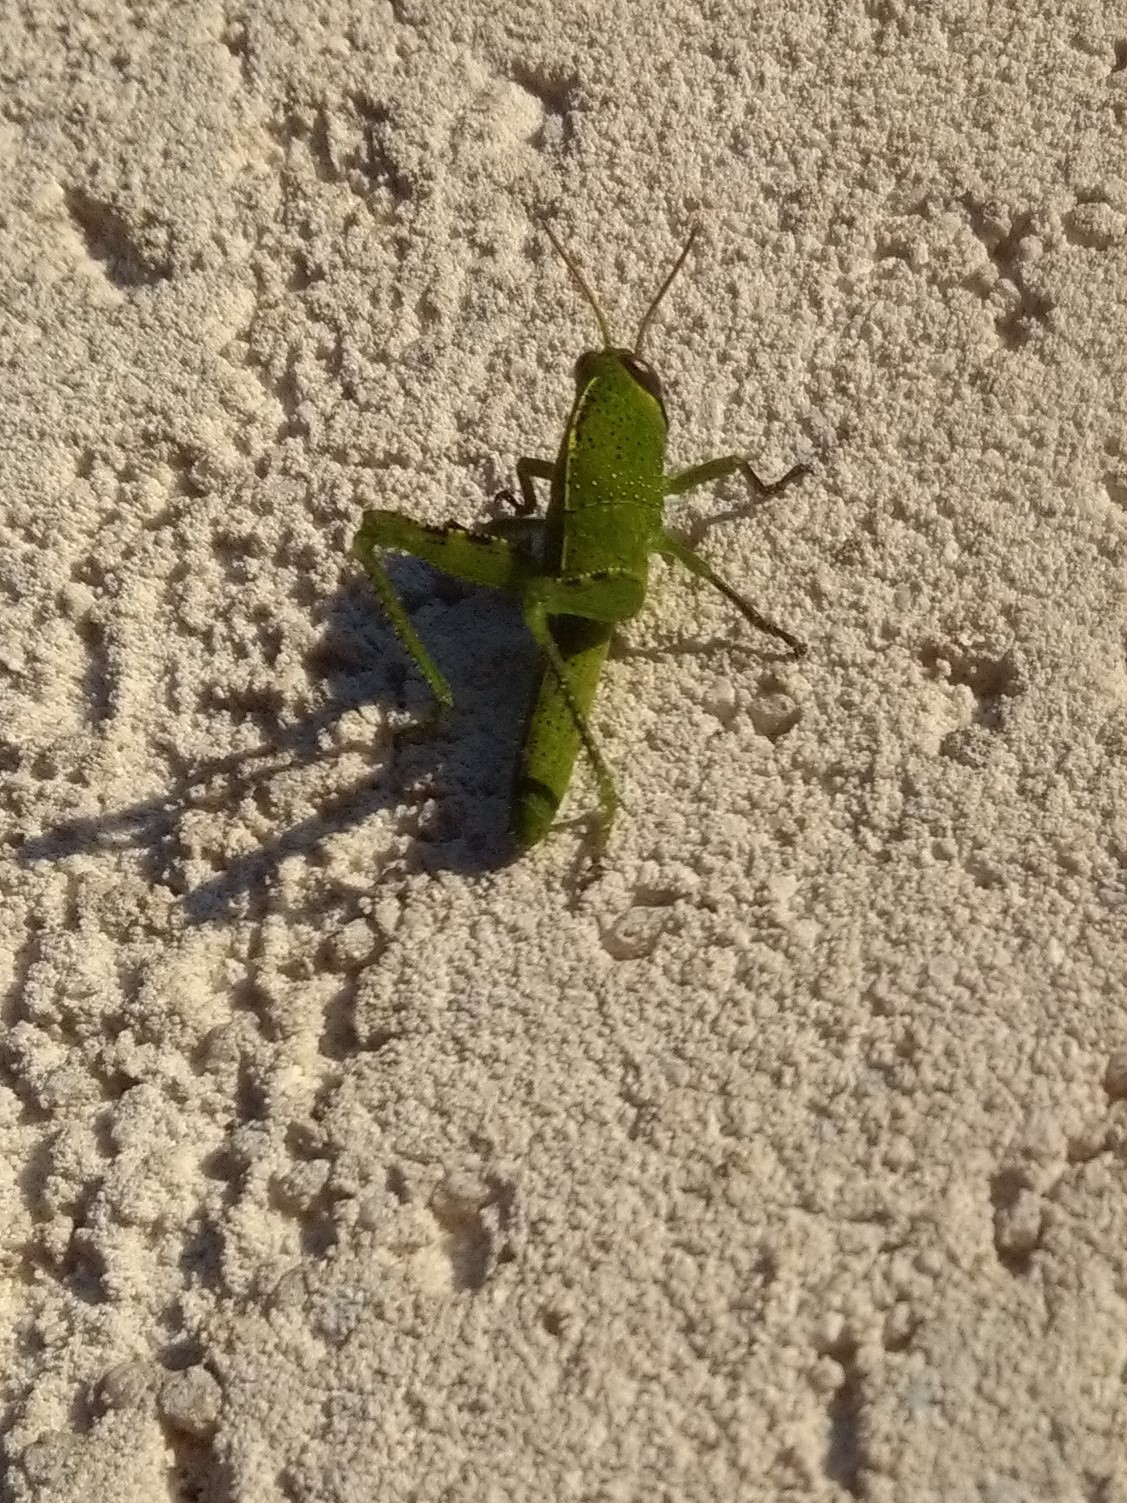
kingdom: Animalia
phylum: Arthropoda
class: Insecta
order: Orthoptera
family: Acrididae
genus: Anacridium
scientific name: Anacridium aegyptium
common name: Egyptian grasshopper
